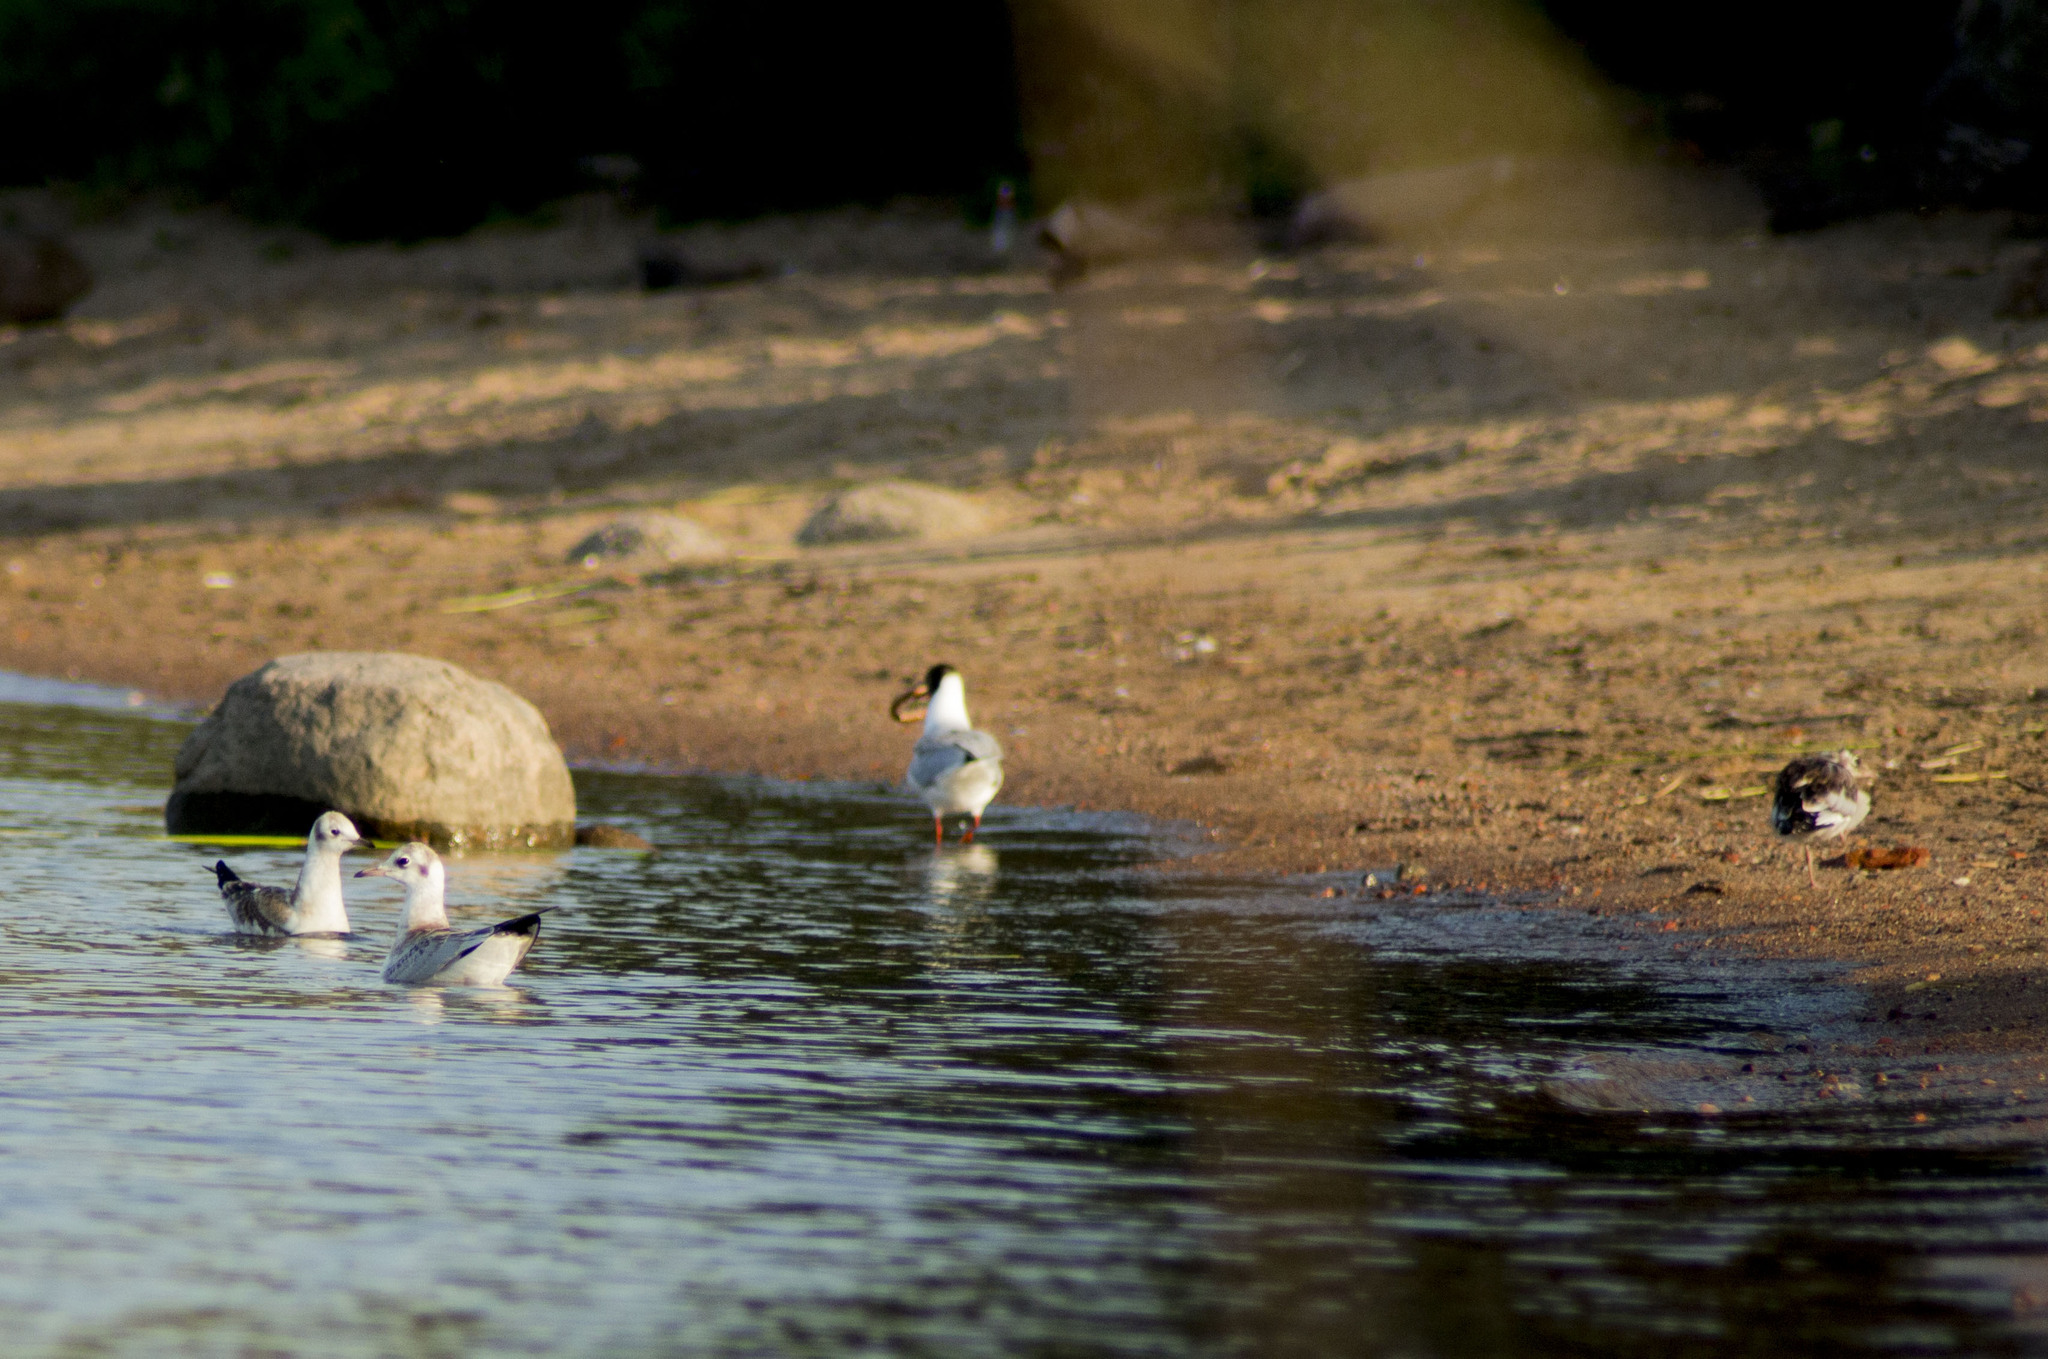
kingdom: Animalia
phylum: Chordata
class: Aves
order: Charadriiformes
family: Laridae
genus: Chroicocephalus
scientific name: Chroicocephalus ridibundus
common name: Black-headed gull
